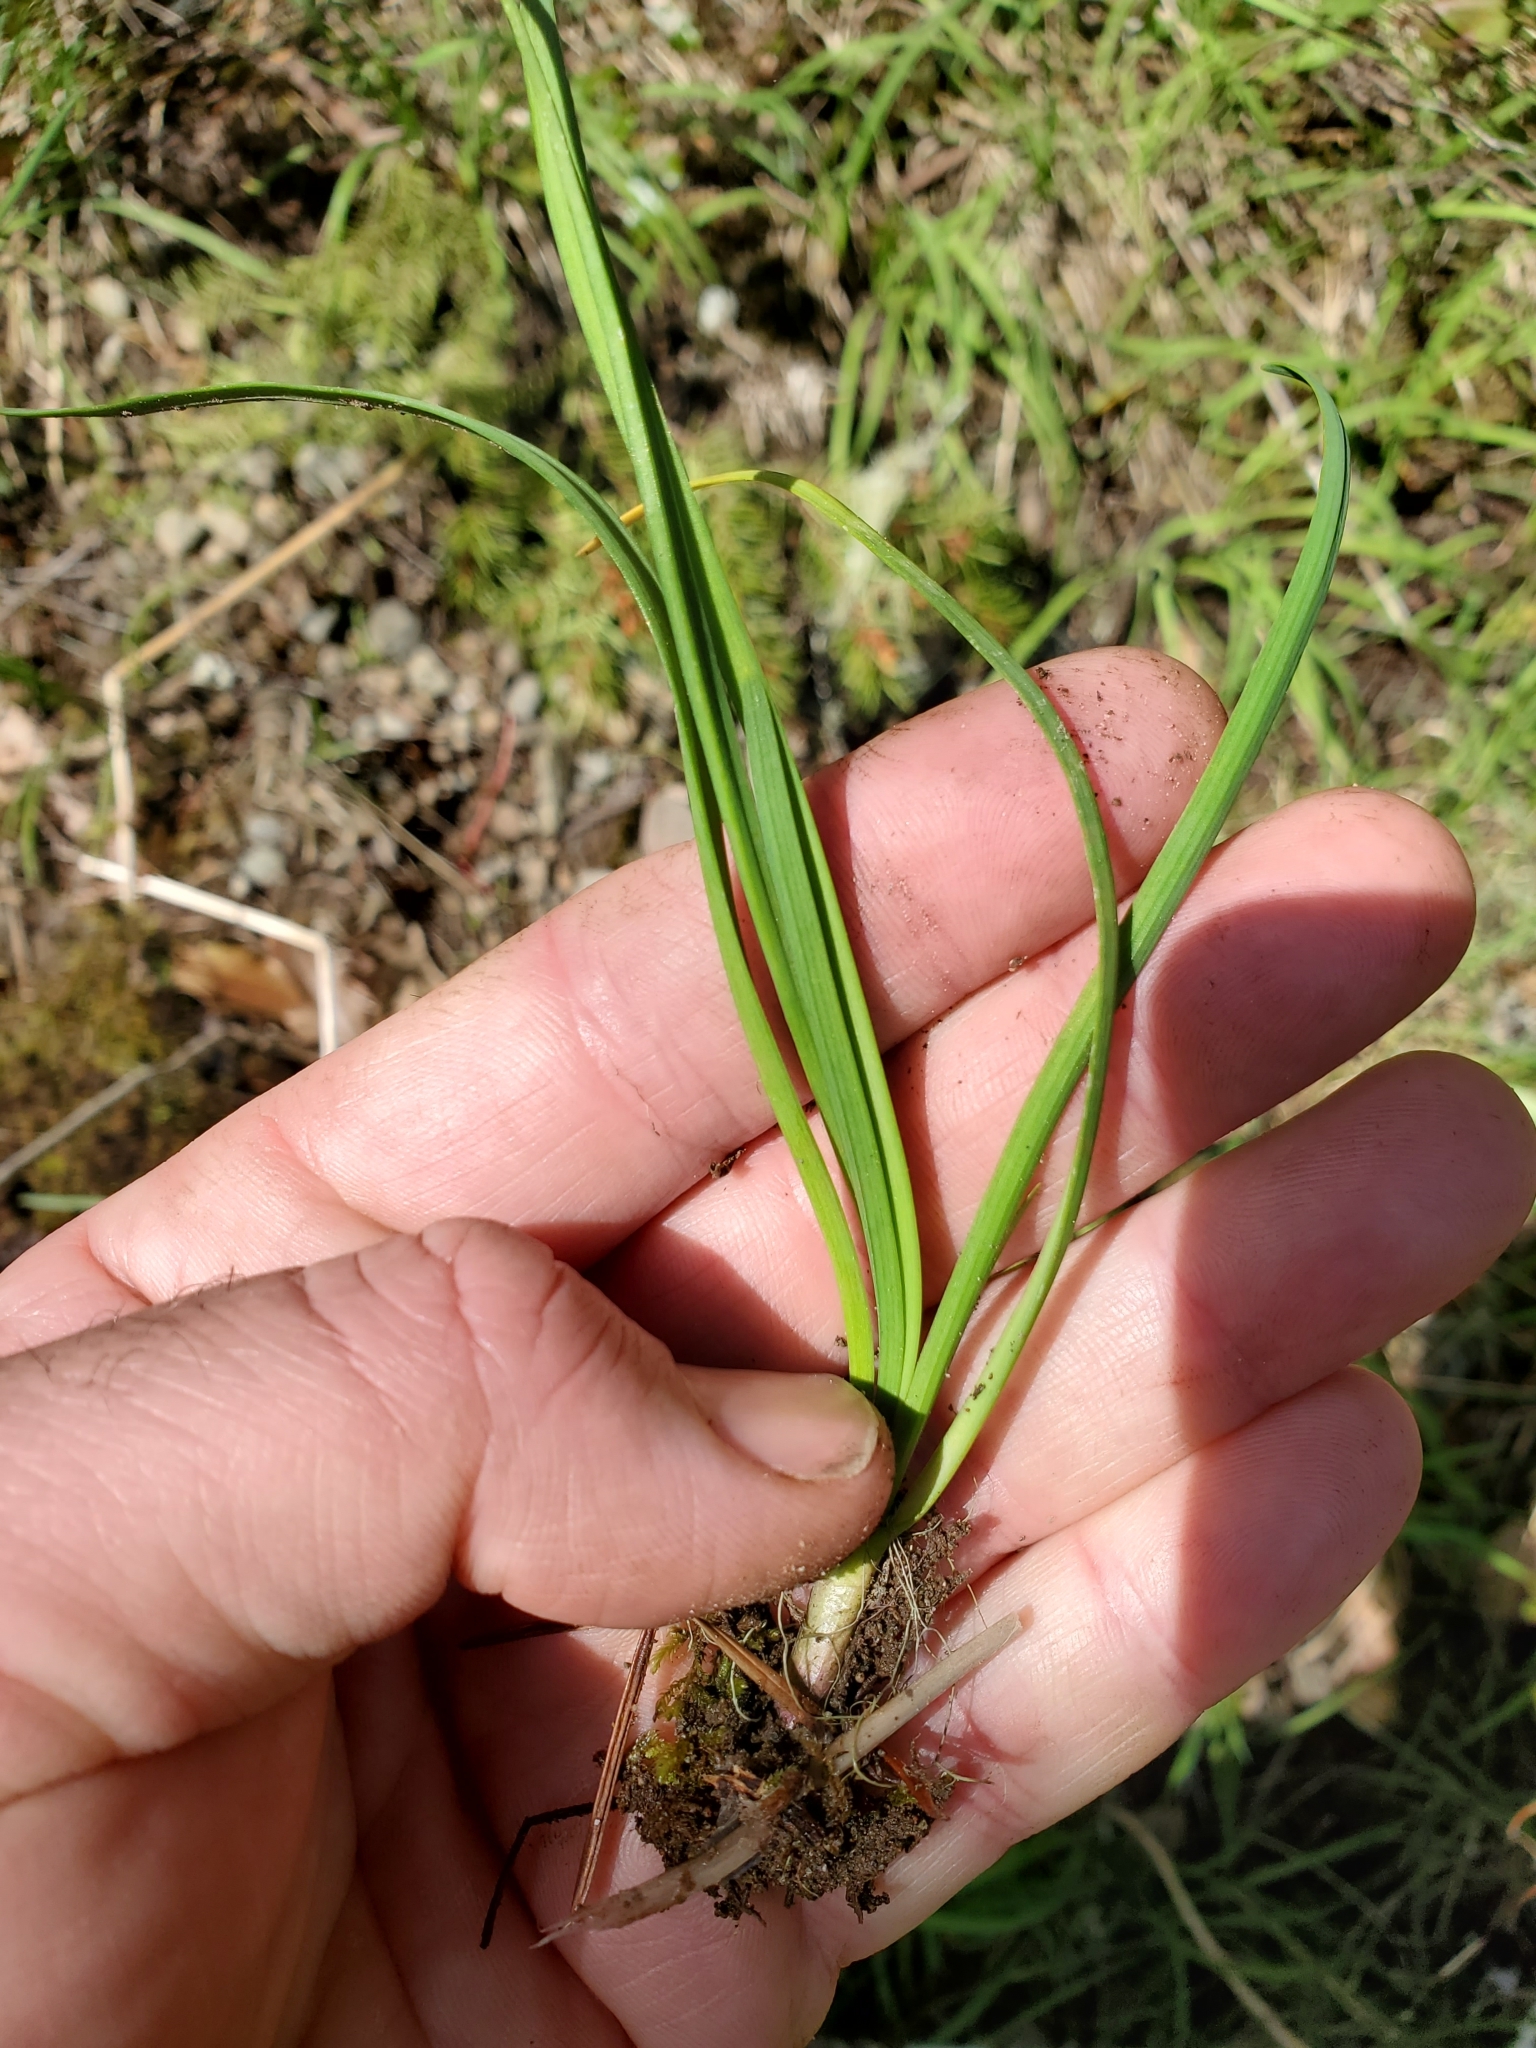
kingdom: Plantae
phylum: Tracheophyta
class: Liliopsida
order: Asparagales
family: Amaryllidaceae
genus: Allium
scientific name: Allium cernuum
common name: Nodding onion
